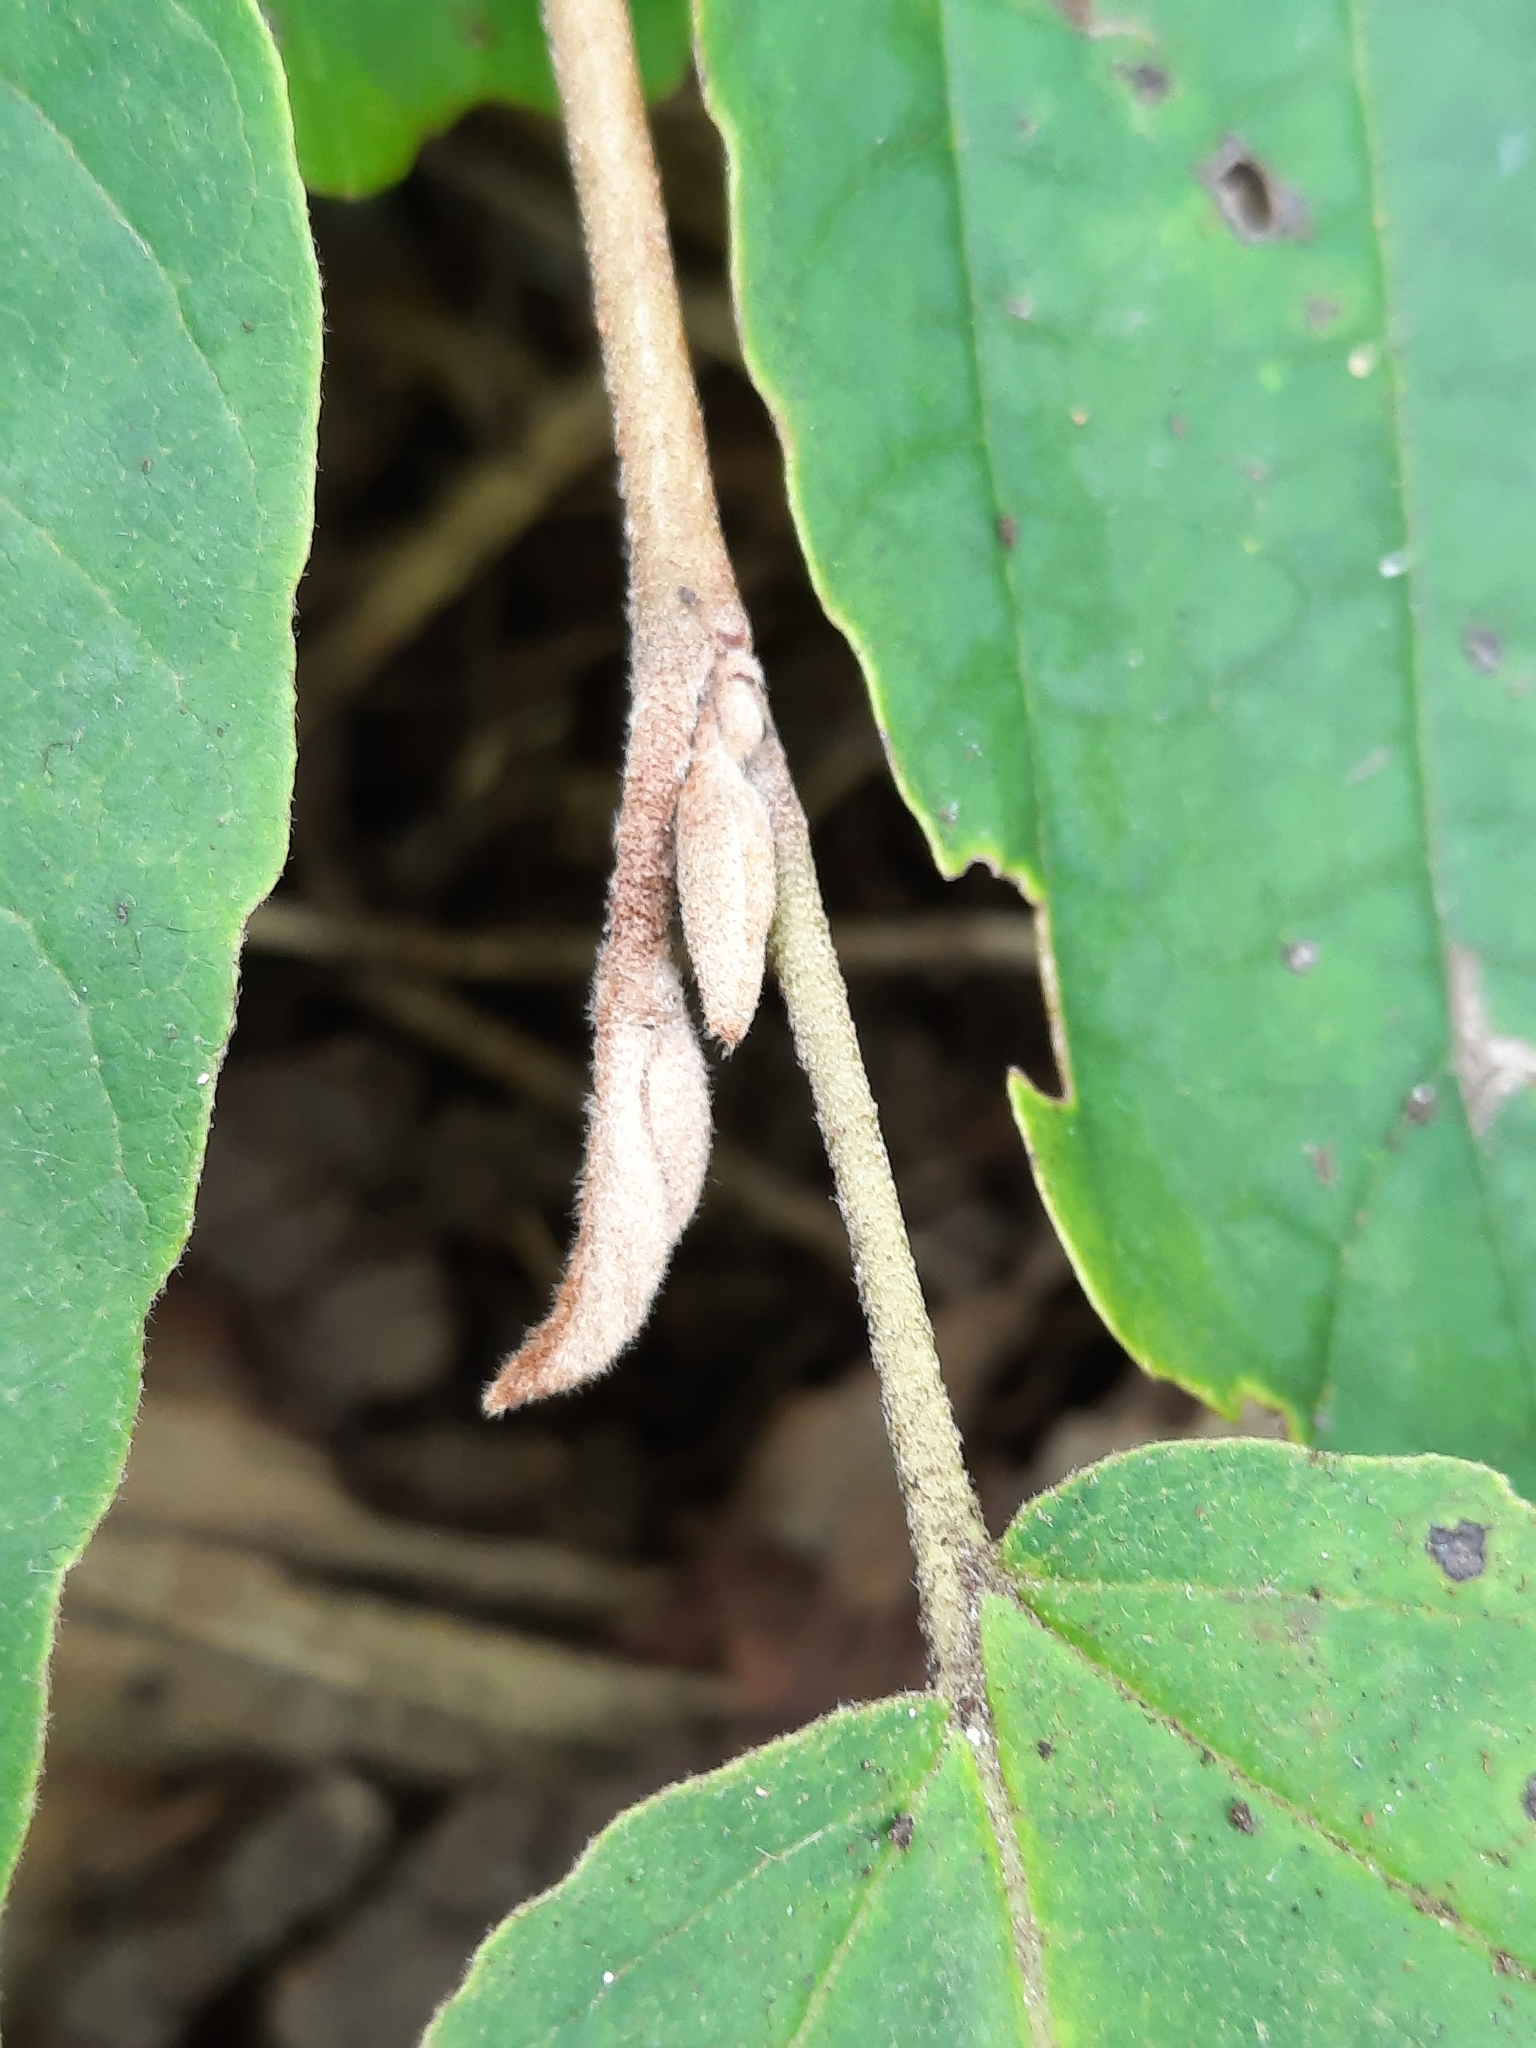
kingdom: Plantae
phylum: Tracheophyta
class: Magnoliopsida
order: Saxifragales
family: Hamamelidaceae
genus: Hamamelis
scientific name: Hamamelis virginiana
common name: Witch-hazel
